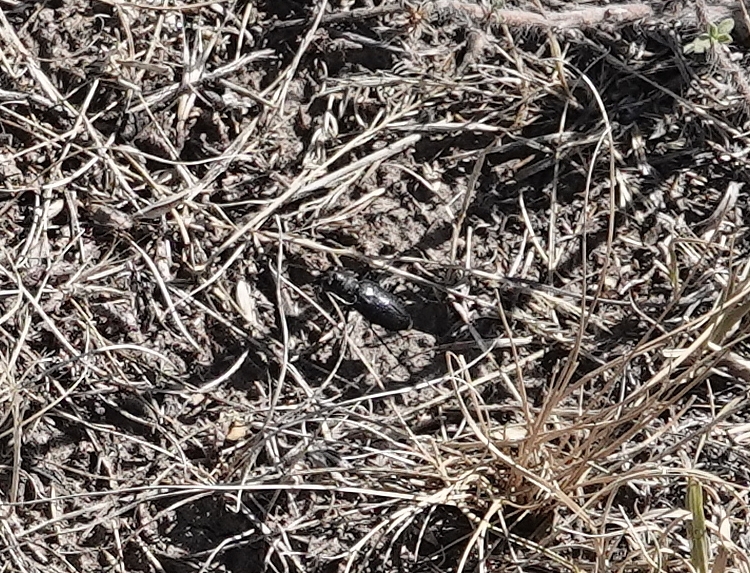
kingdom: Animalia
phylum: Arthropoda
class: Insecta
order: Coleoptera
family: Carabidae
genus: Cicindela
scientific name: Cicindela nebraskana
